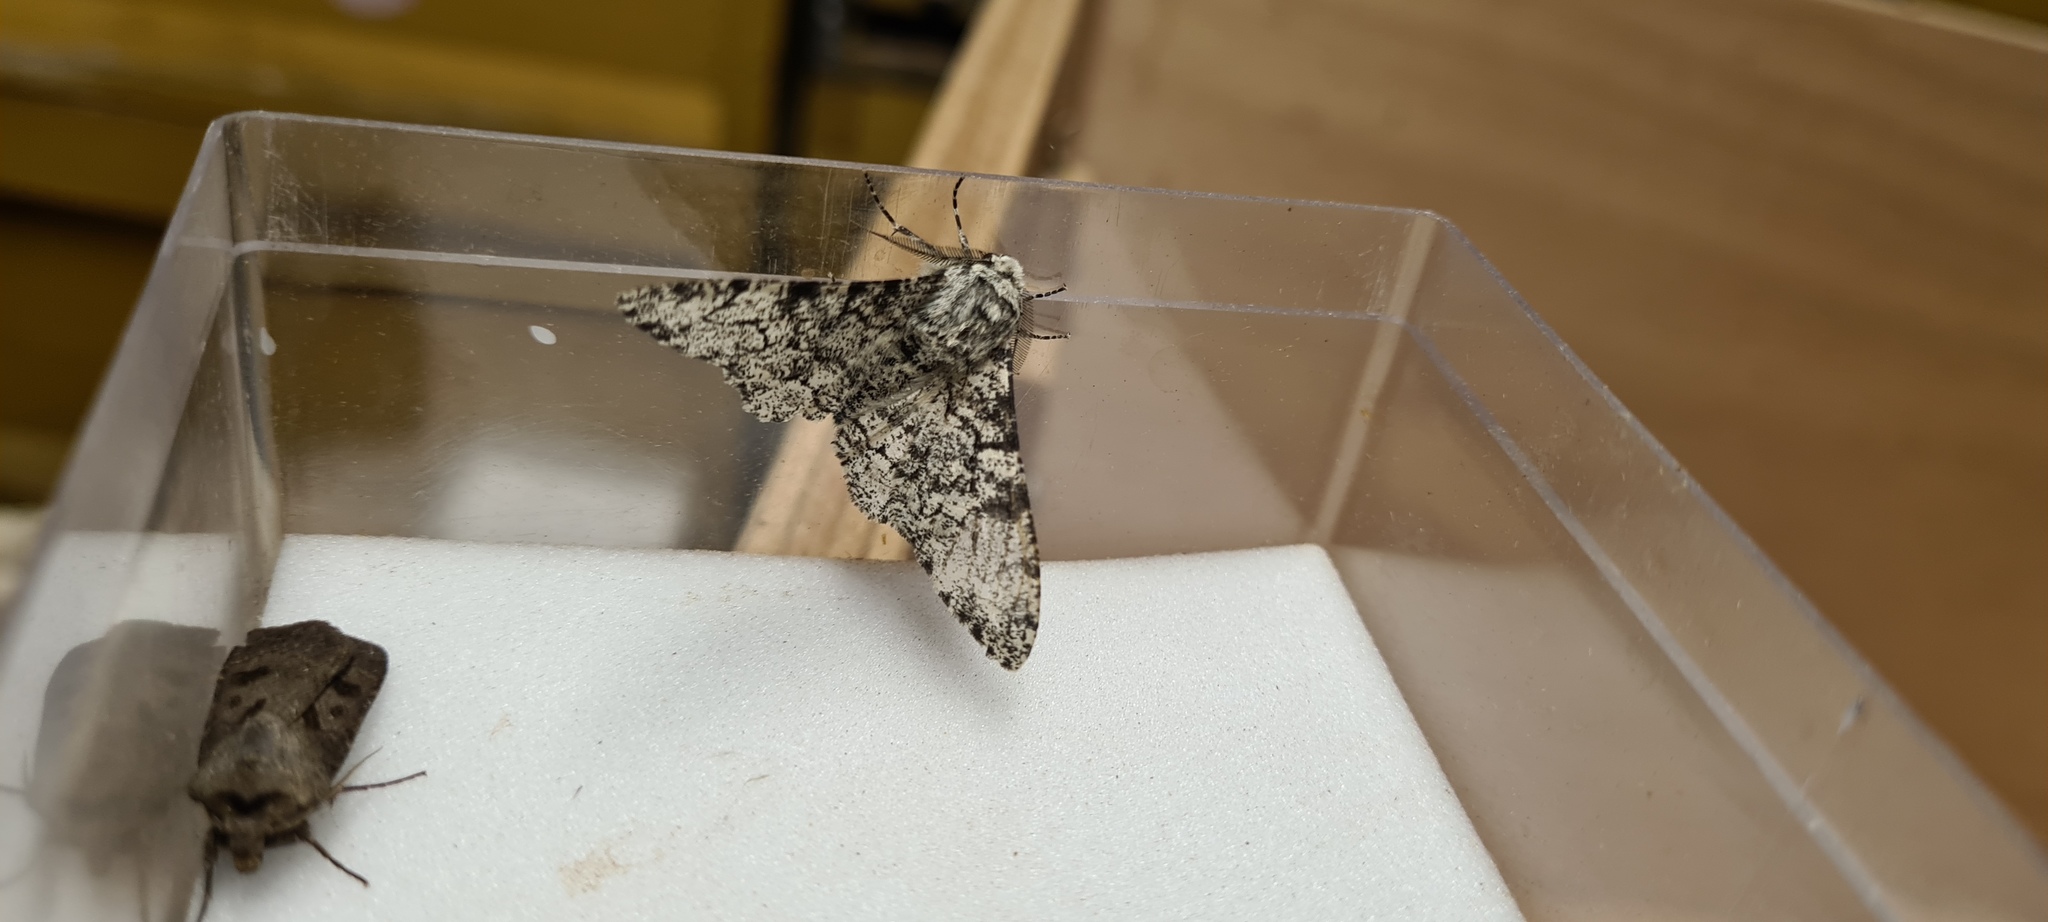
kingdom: Animalia
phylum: Arthropoda
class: Insecta
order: Lepidoptera
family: Geometridae
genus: Biston
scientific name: Biston betularia
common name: Peppered moth
